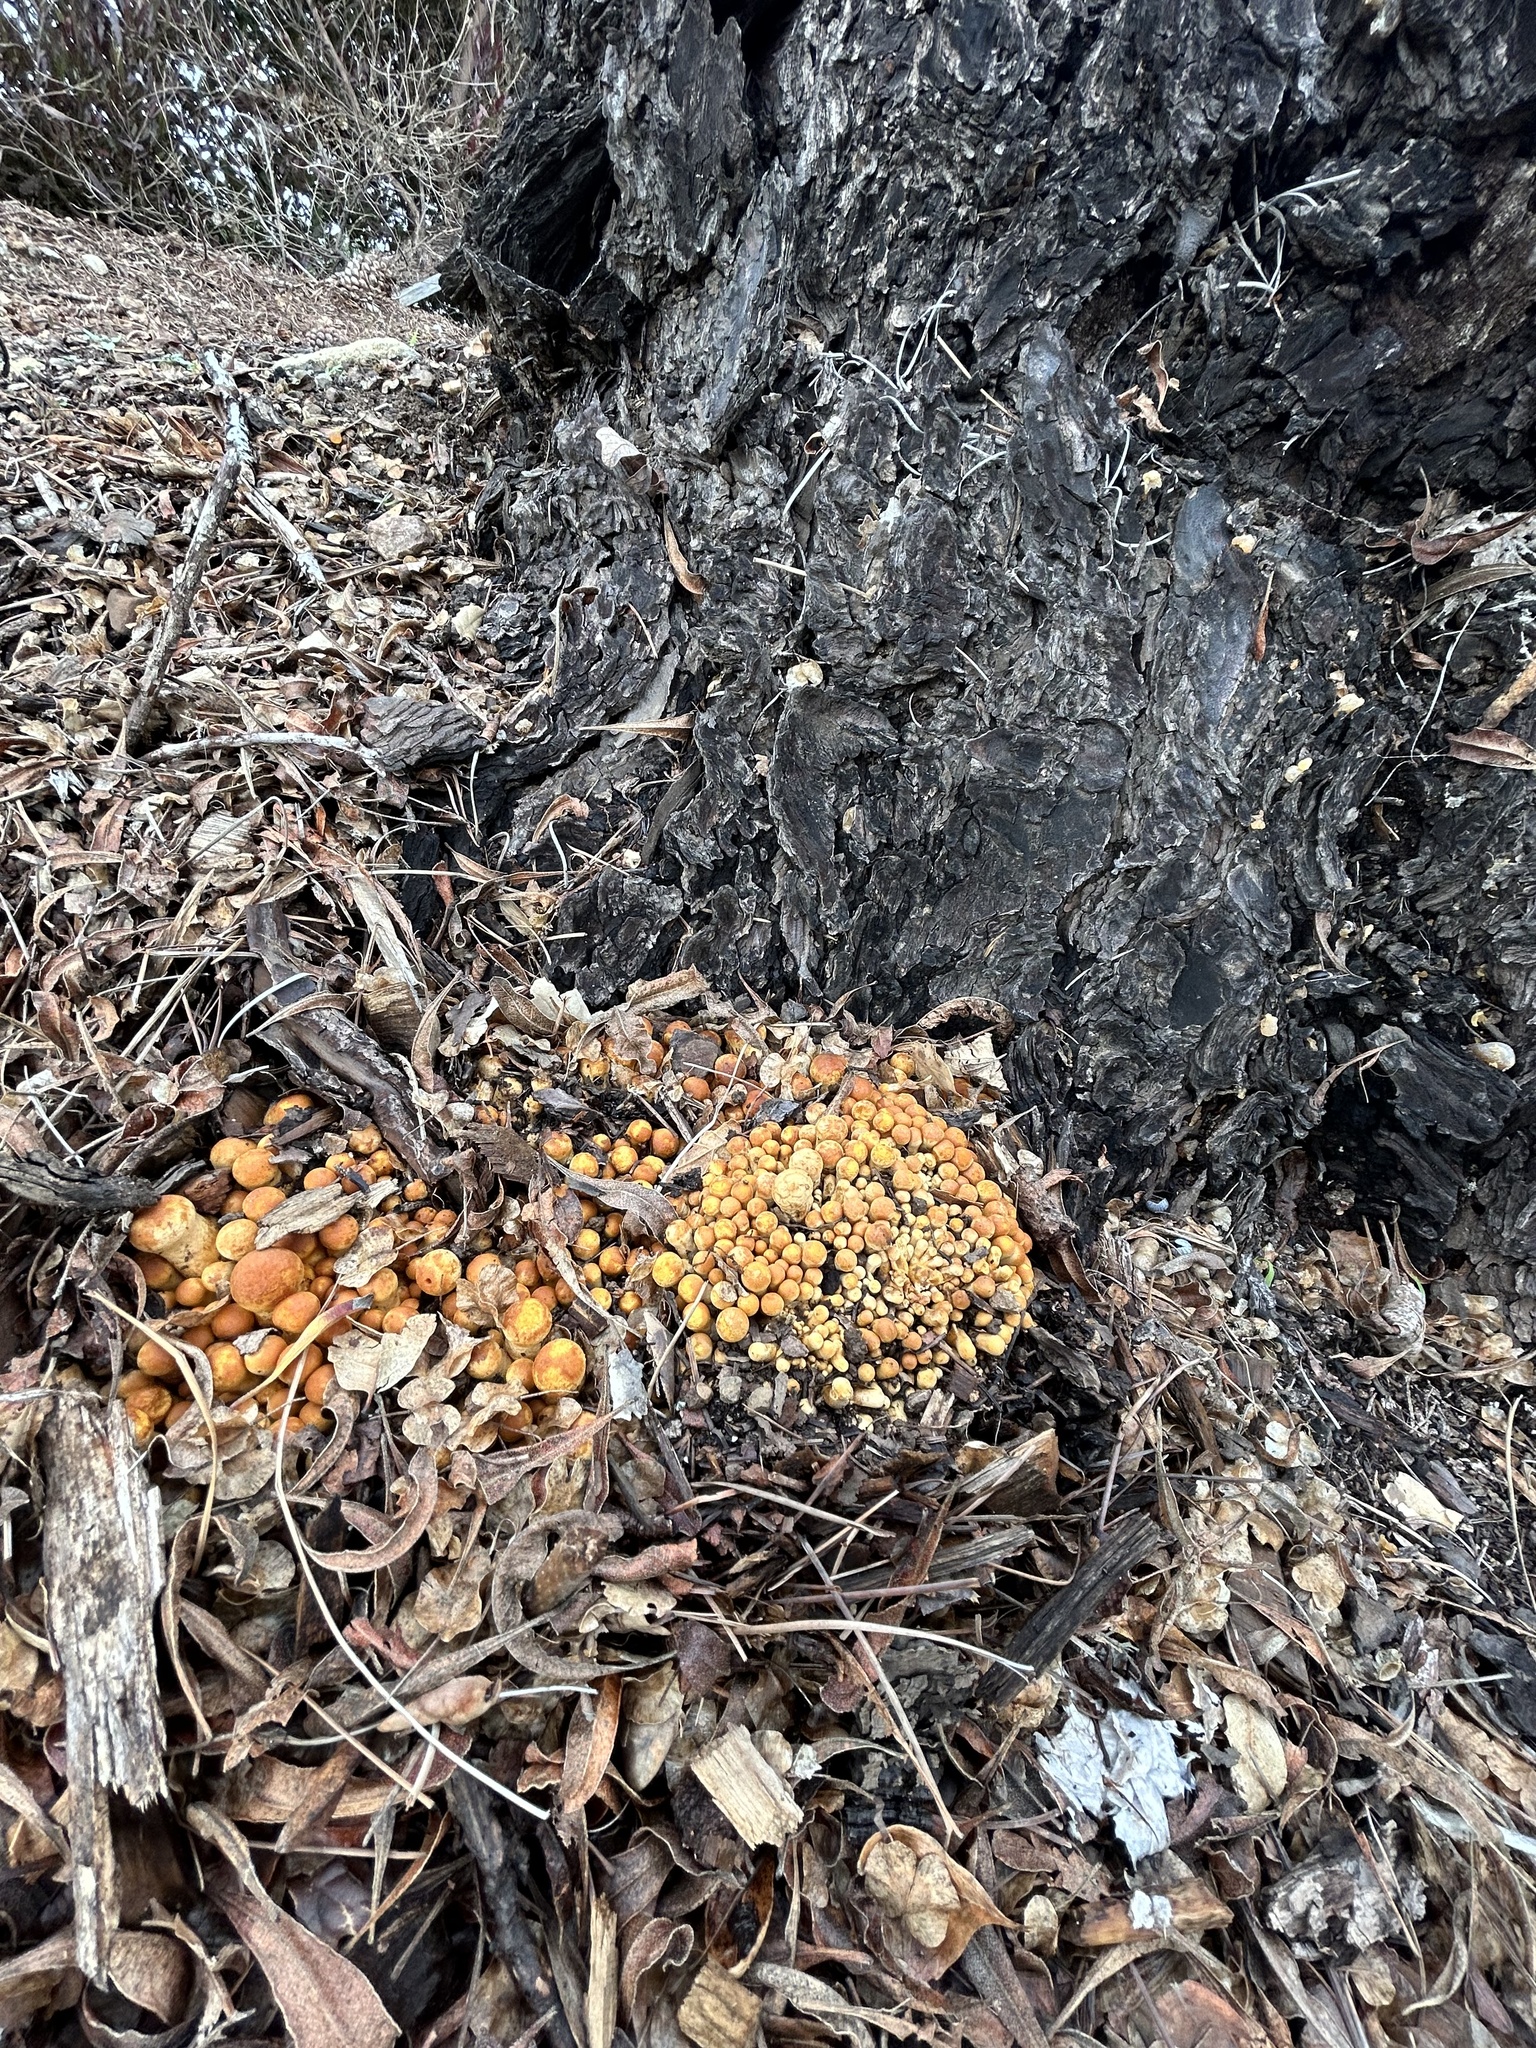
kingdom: Fungi
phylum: Basidiomycota
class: Agaricomycetes
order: Agaricales
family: Hymenogastraceae
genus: Gymnopilus
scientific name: Gymnopilus ventricosus
